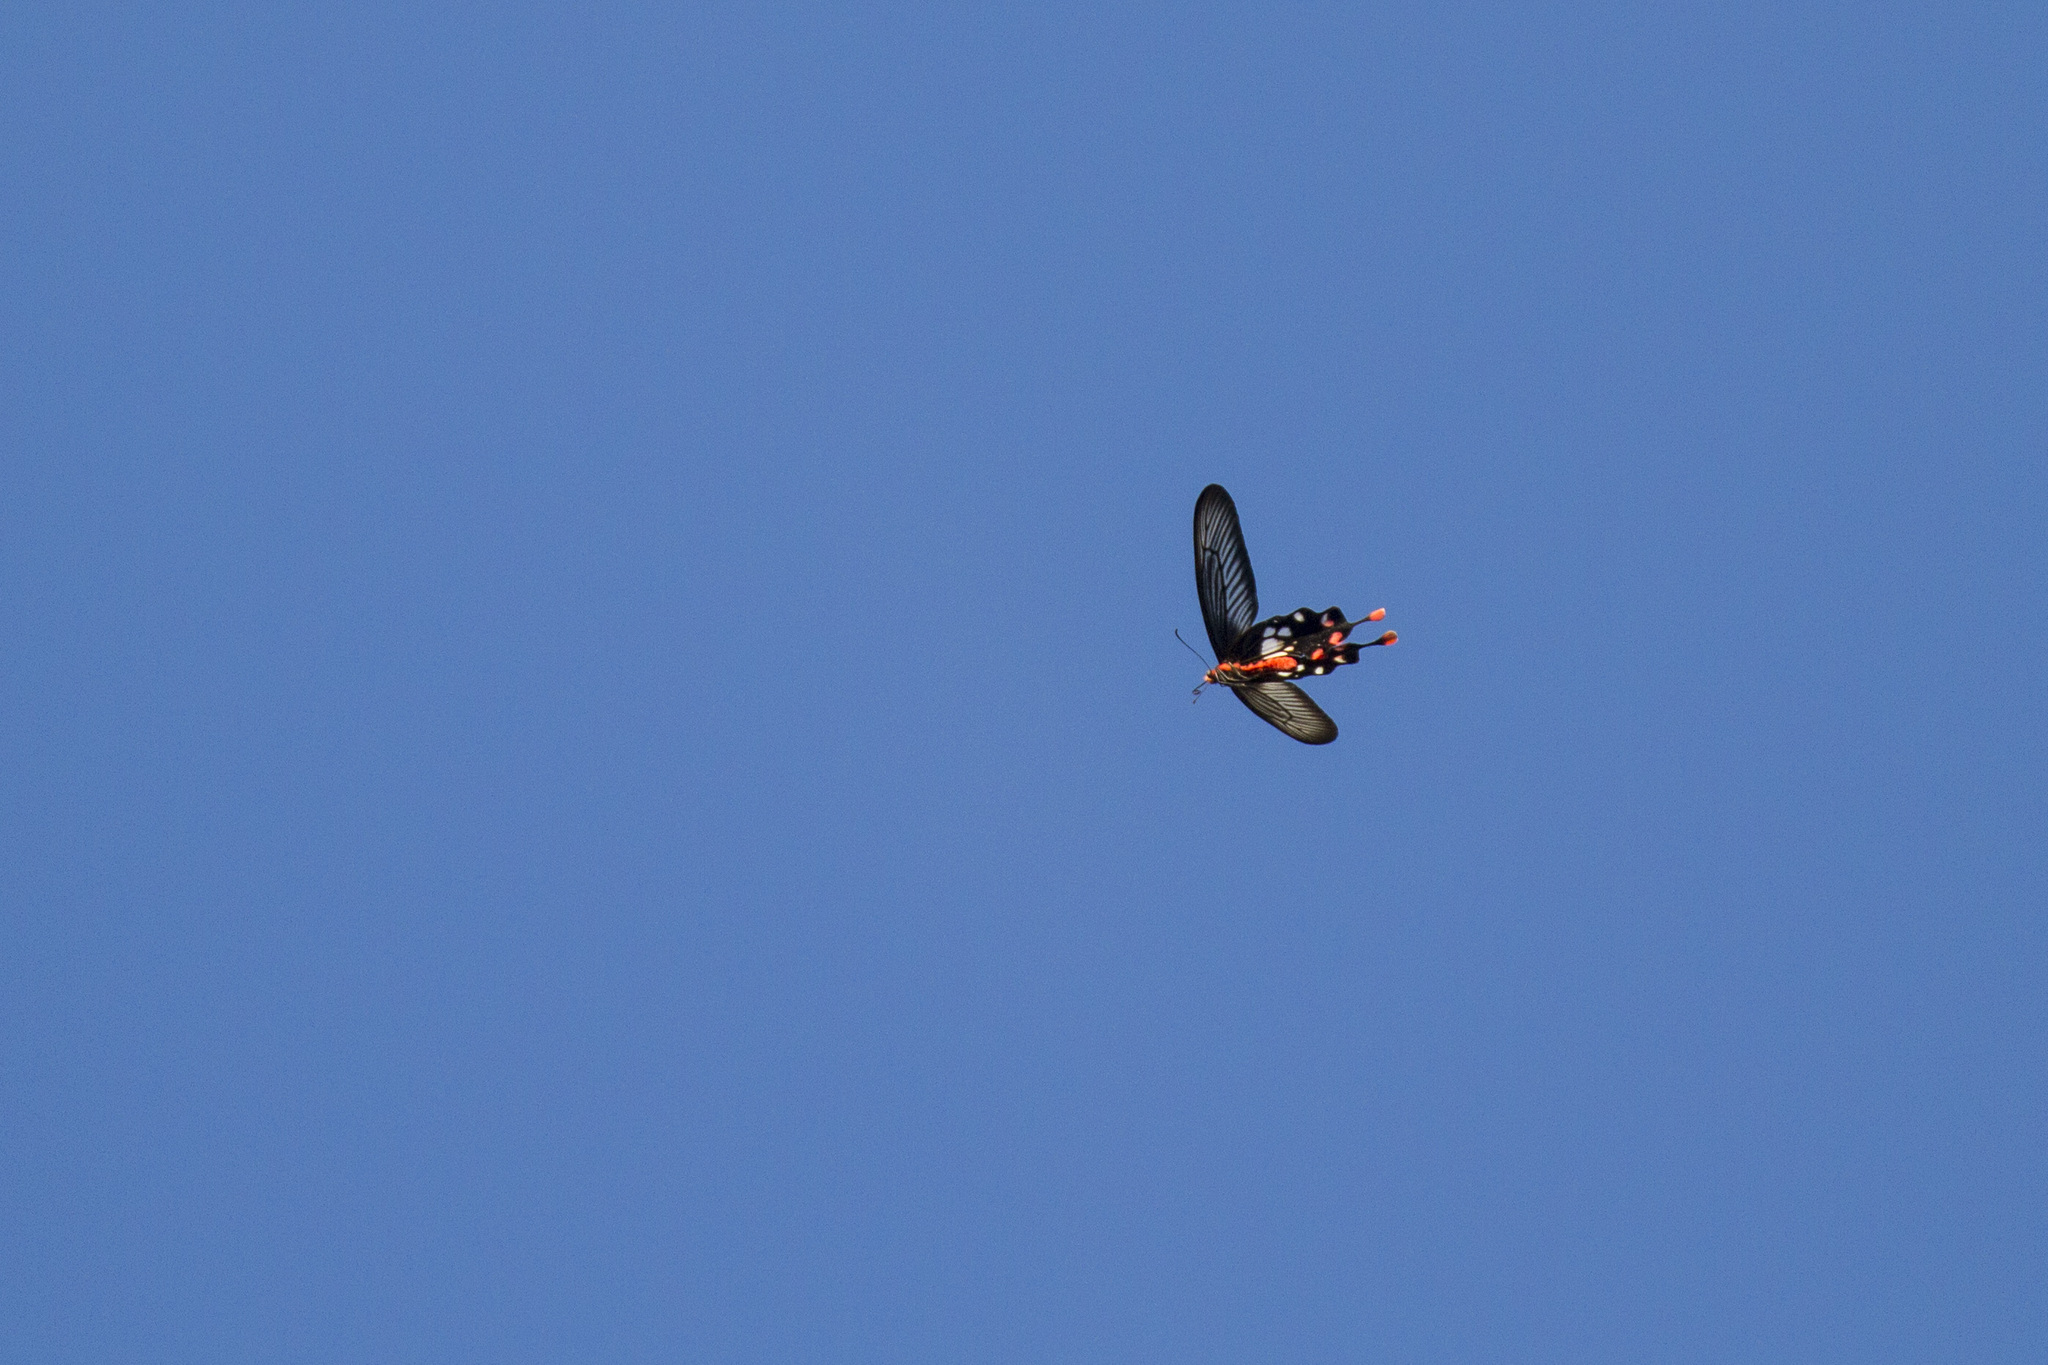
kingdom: Animalia
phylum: Arthropoda
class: Insecta
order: Lepidoptera
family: Papilionidae
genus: Losaria
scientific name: Losaria rhodifer
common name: Andaman clubtail
